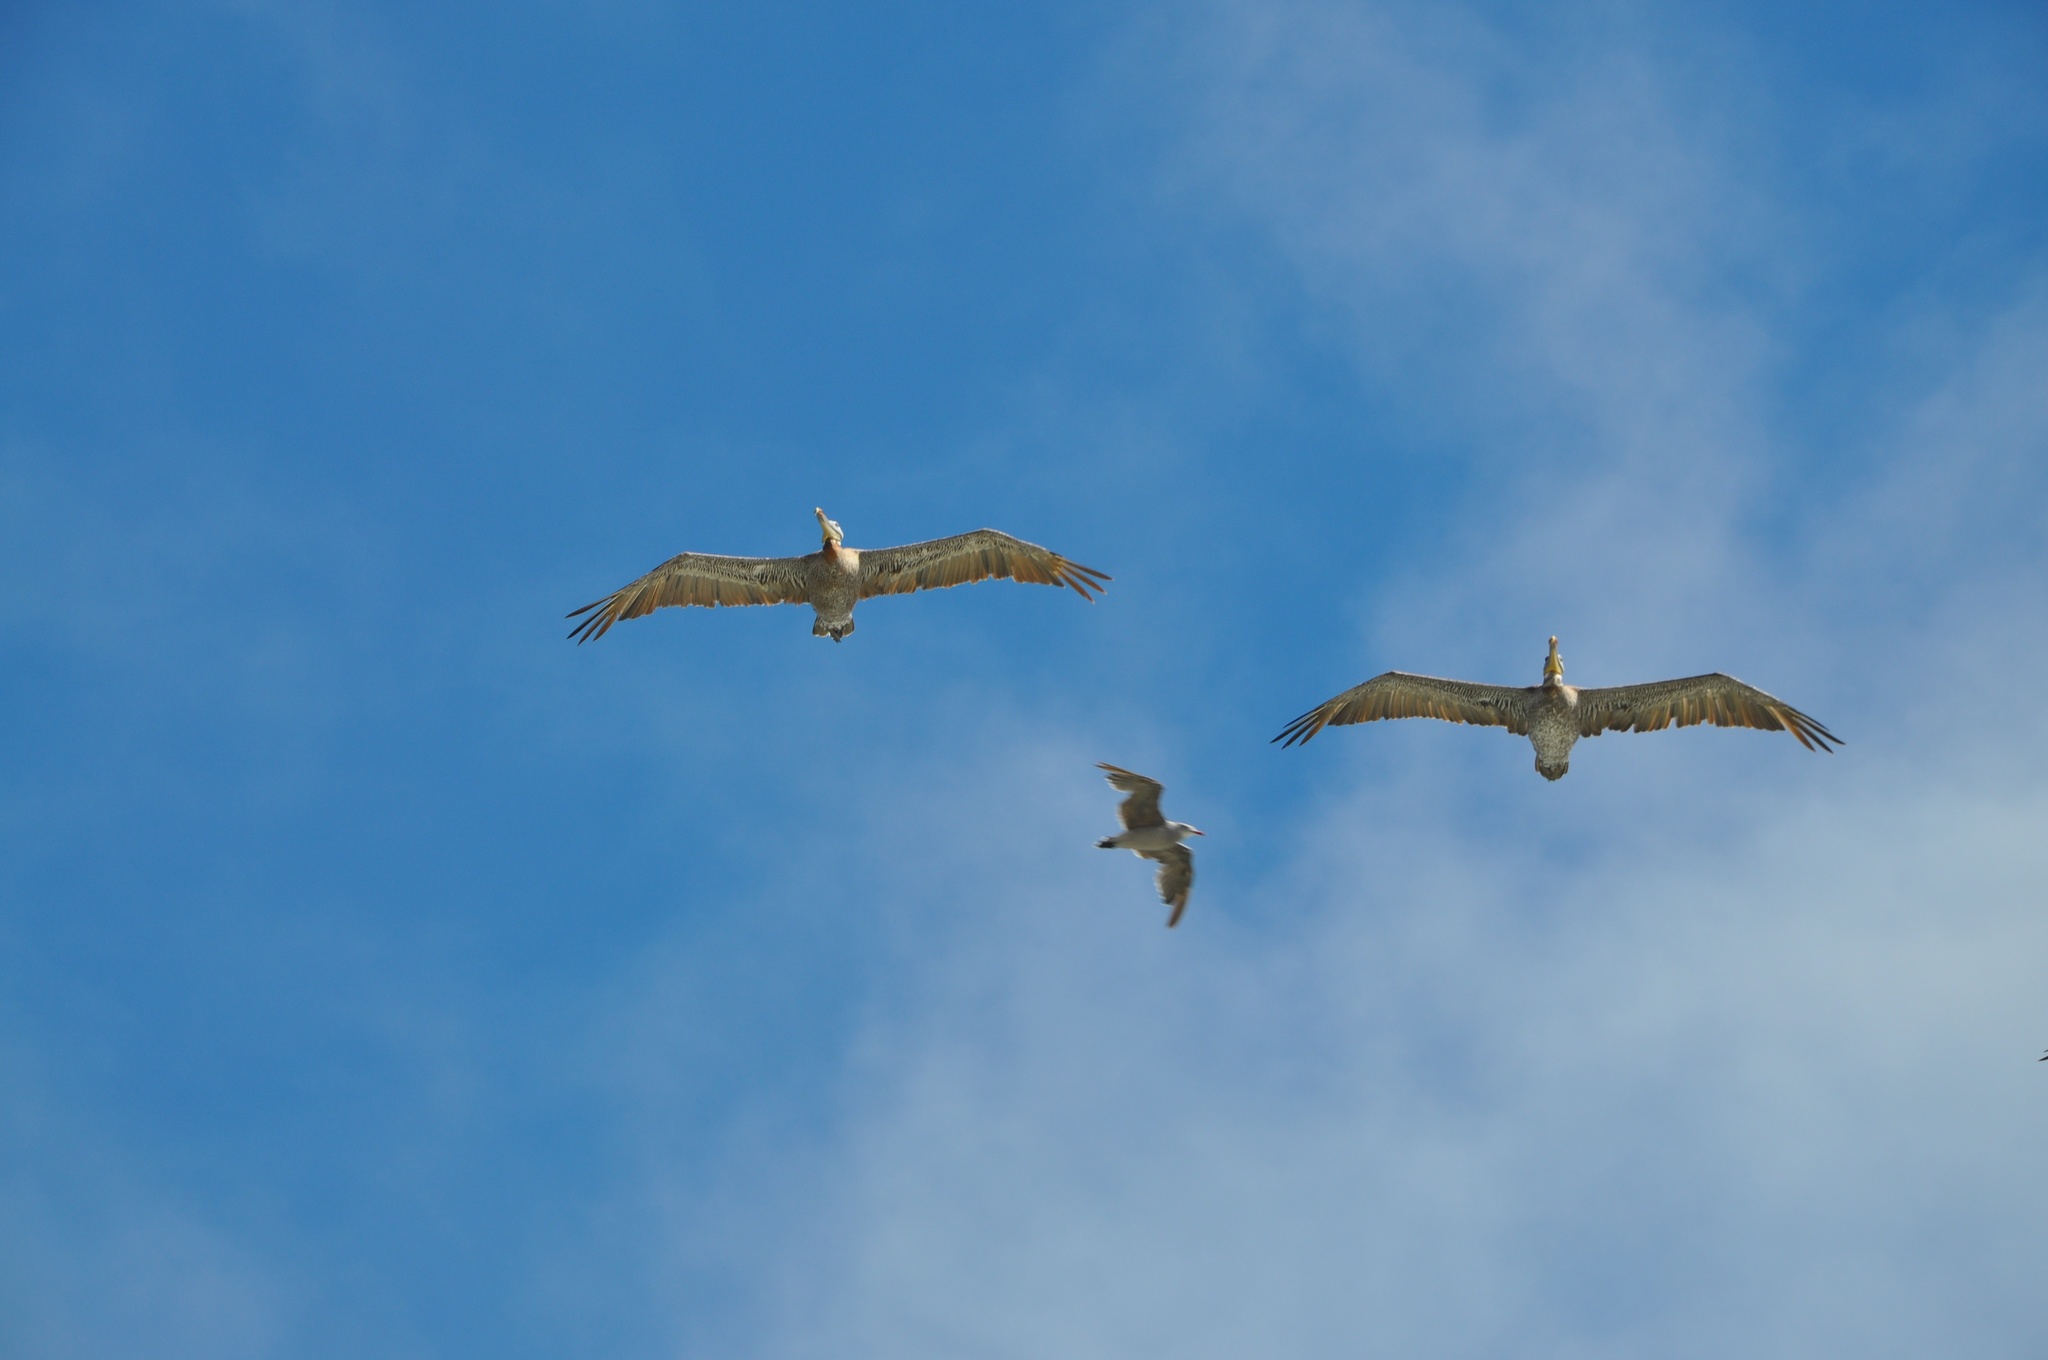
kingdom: Animalia
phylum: Chordata
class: Aves
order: Pelecaniformes
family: Pelecanidae
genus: Pelecanus
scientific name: Pelecanus occidentalis
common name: Brown pelican
